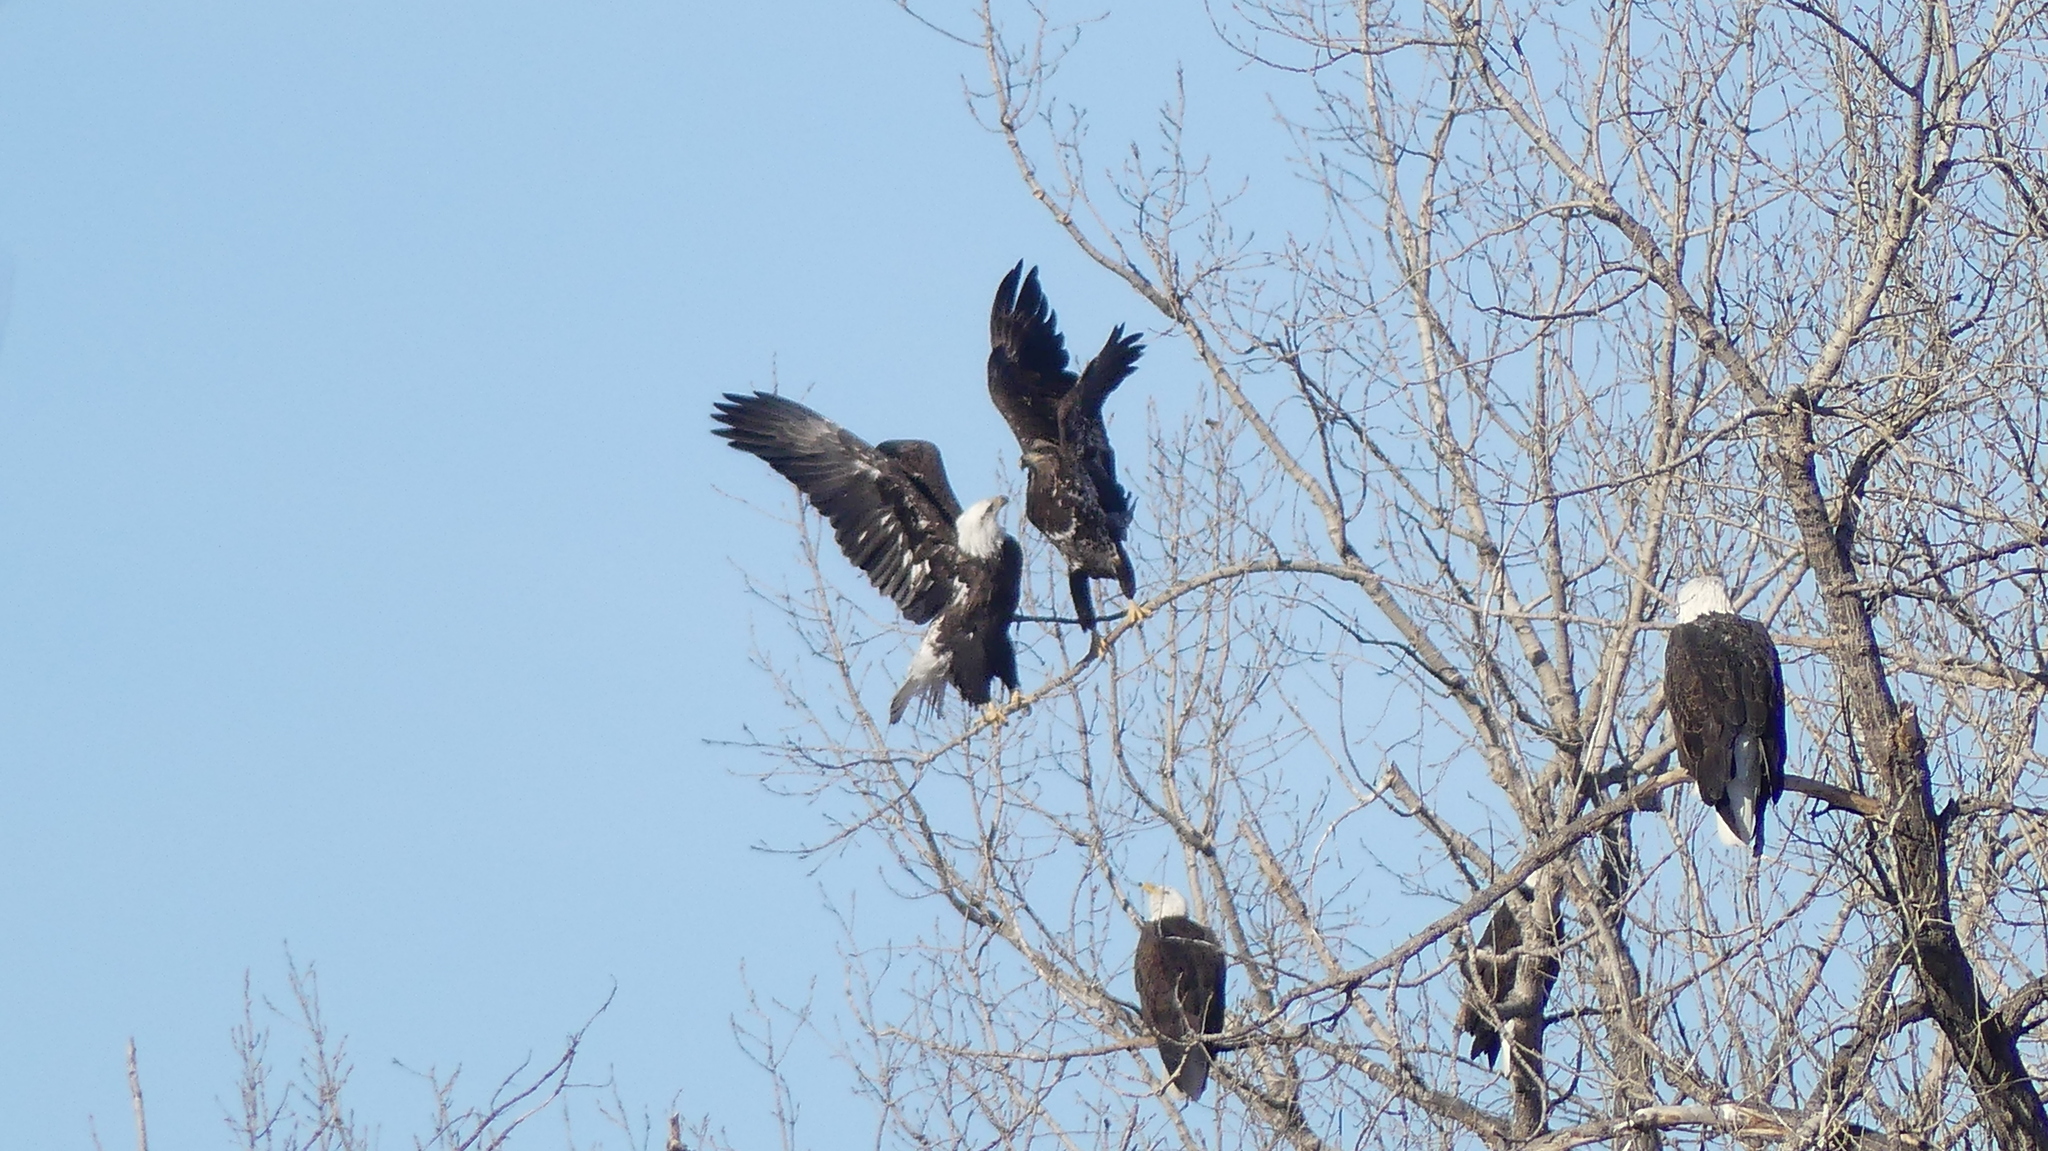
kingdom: Animalia
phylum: Chordata
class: Aves
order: Accipitriformes
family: Accipitridae
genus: Haliaeetus
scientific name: Haliaeetus leucocephalus
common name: Bald eagle
